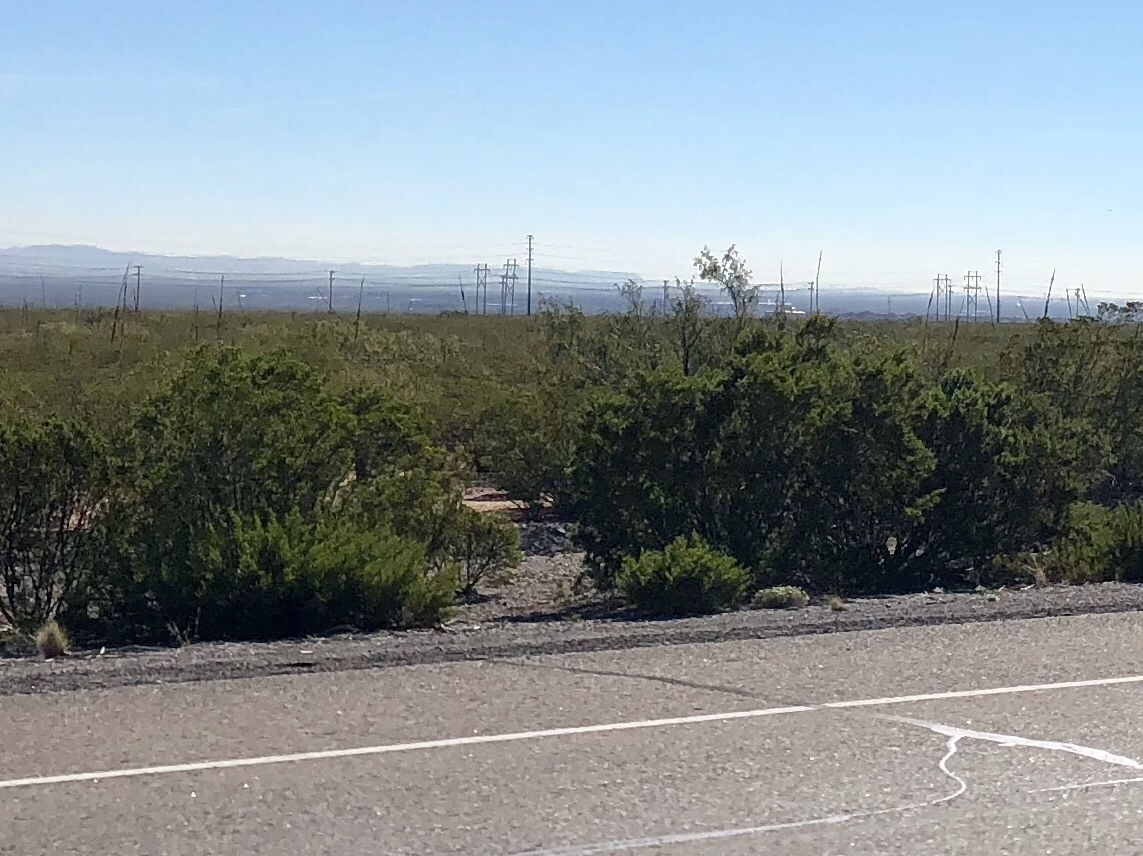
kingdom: Plantae
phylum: Tracheophyta
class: Magnoliopsida
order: Zygophyllales
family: Zygophyllaceae
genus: Larrea
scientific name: Larrea tridentata
